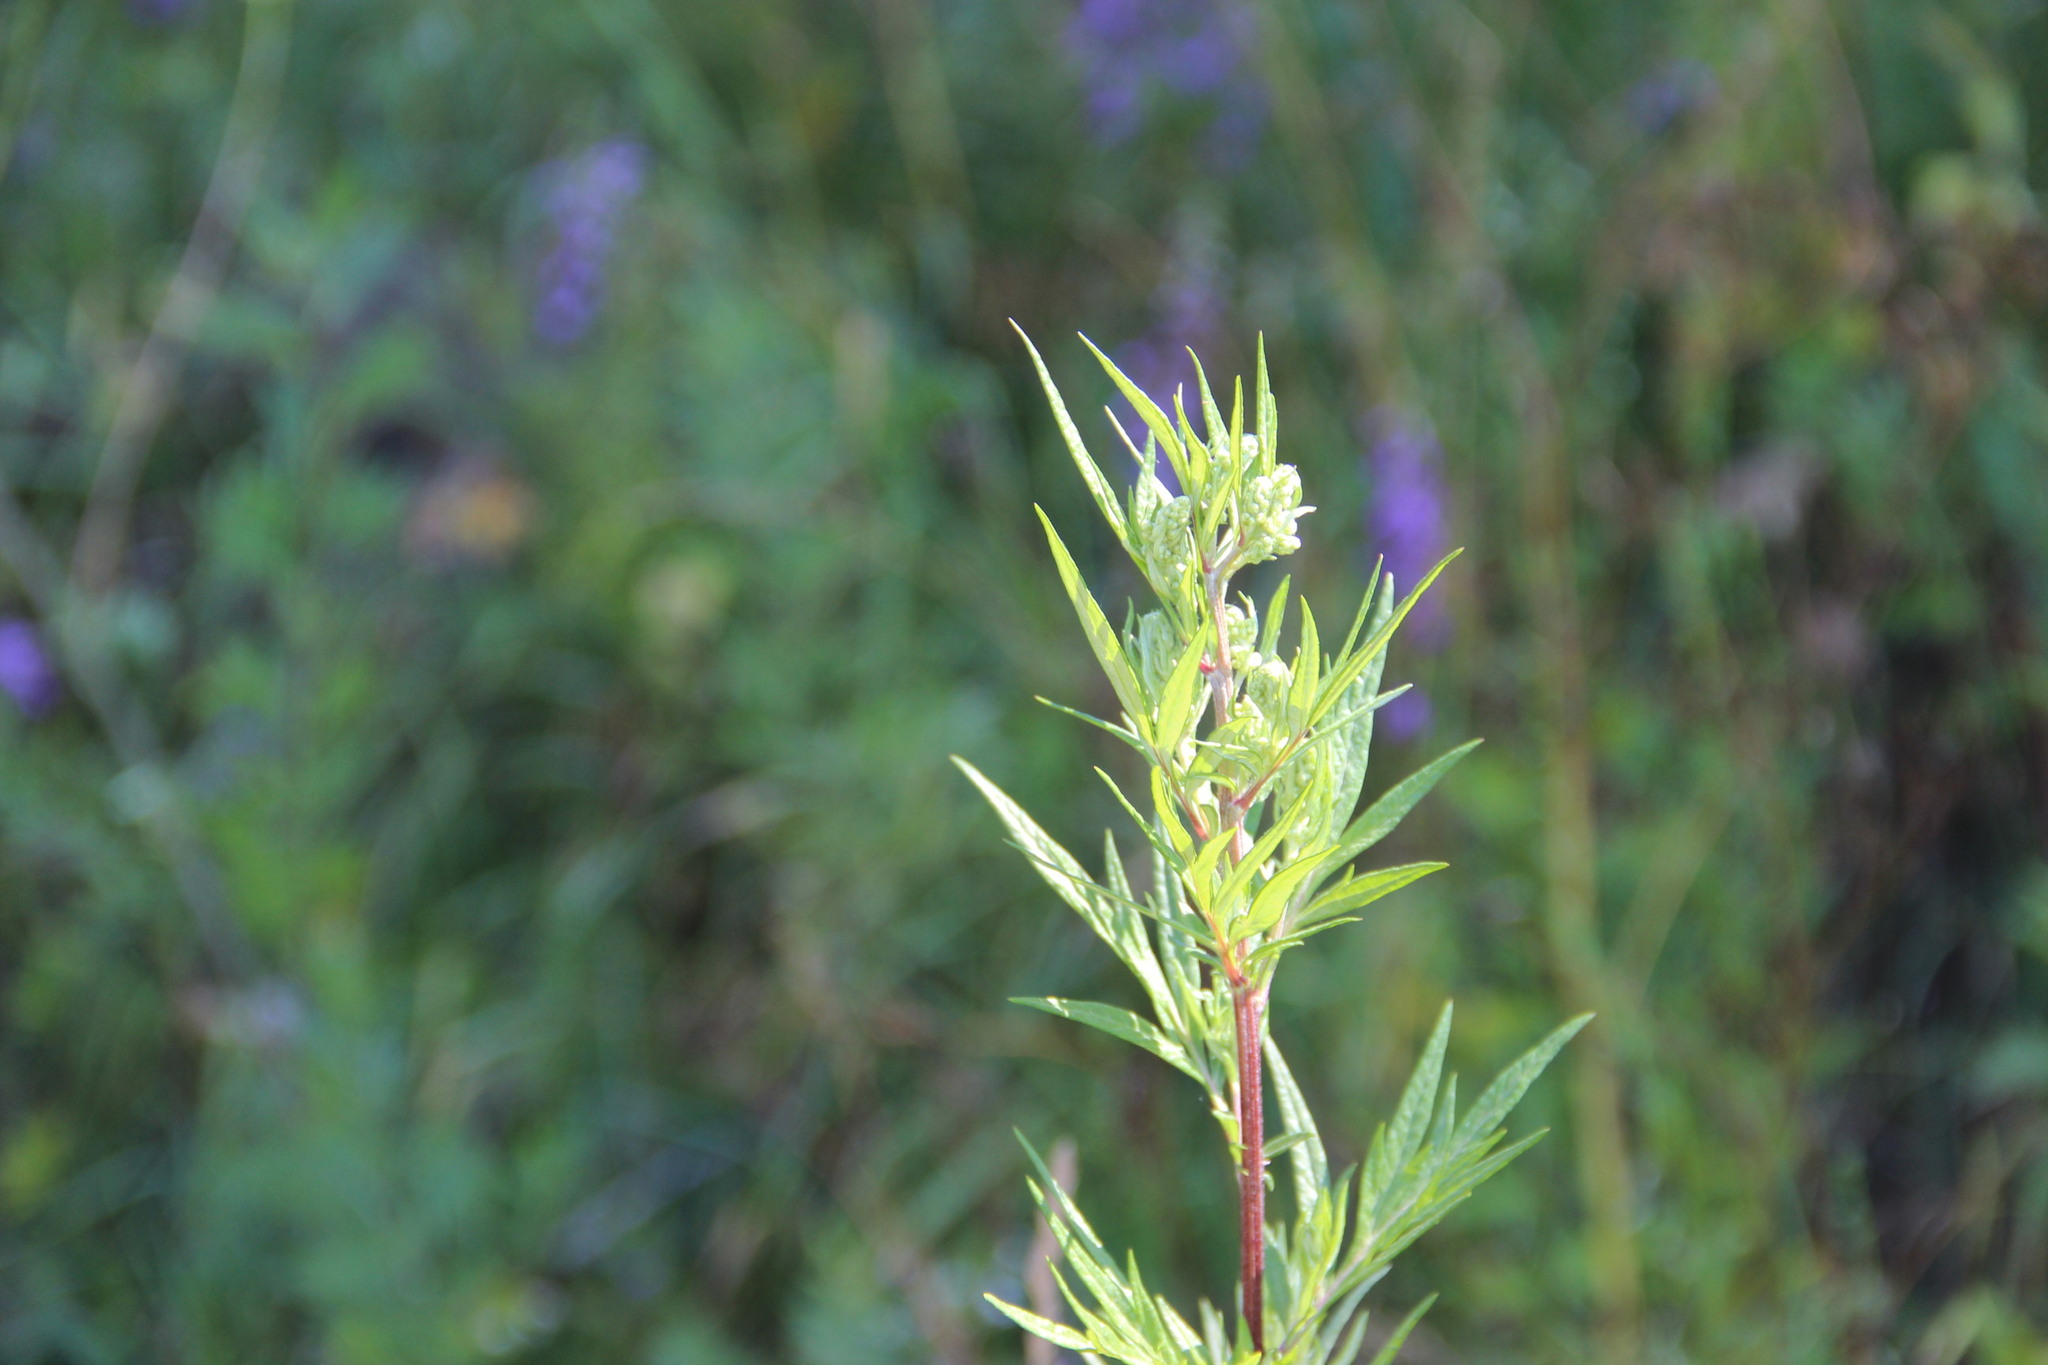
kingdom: Plantae
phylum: Tracheophyta
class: Magnoliopsida
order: Asterales
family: Asteraceae
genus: Artemisia
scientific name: Artemisia vulgaris
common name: Mugwort
